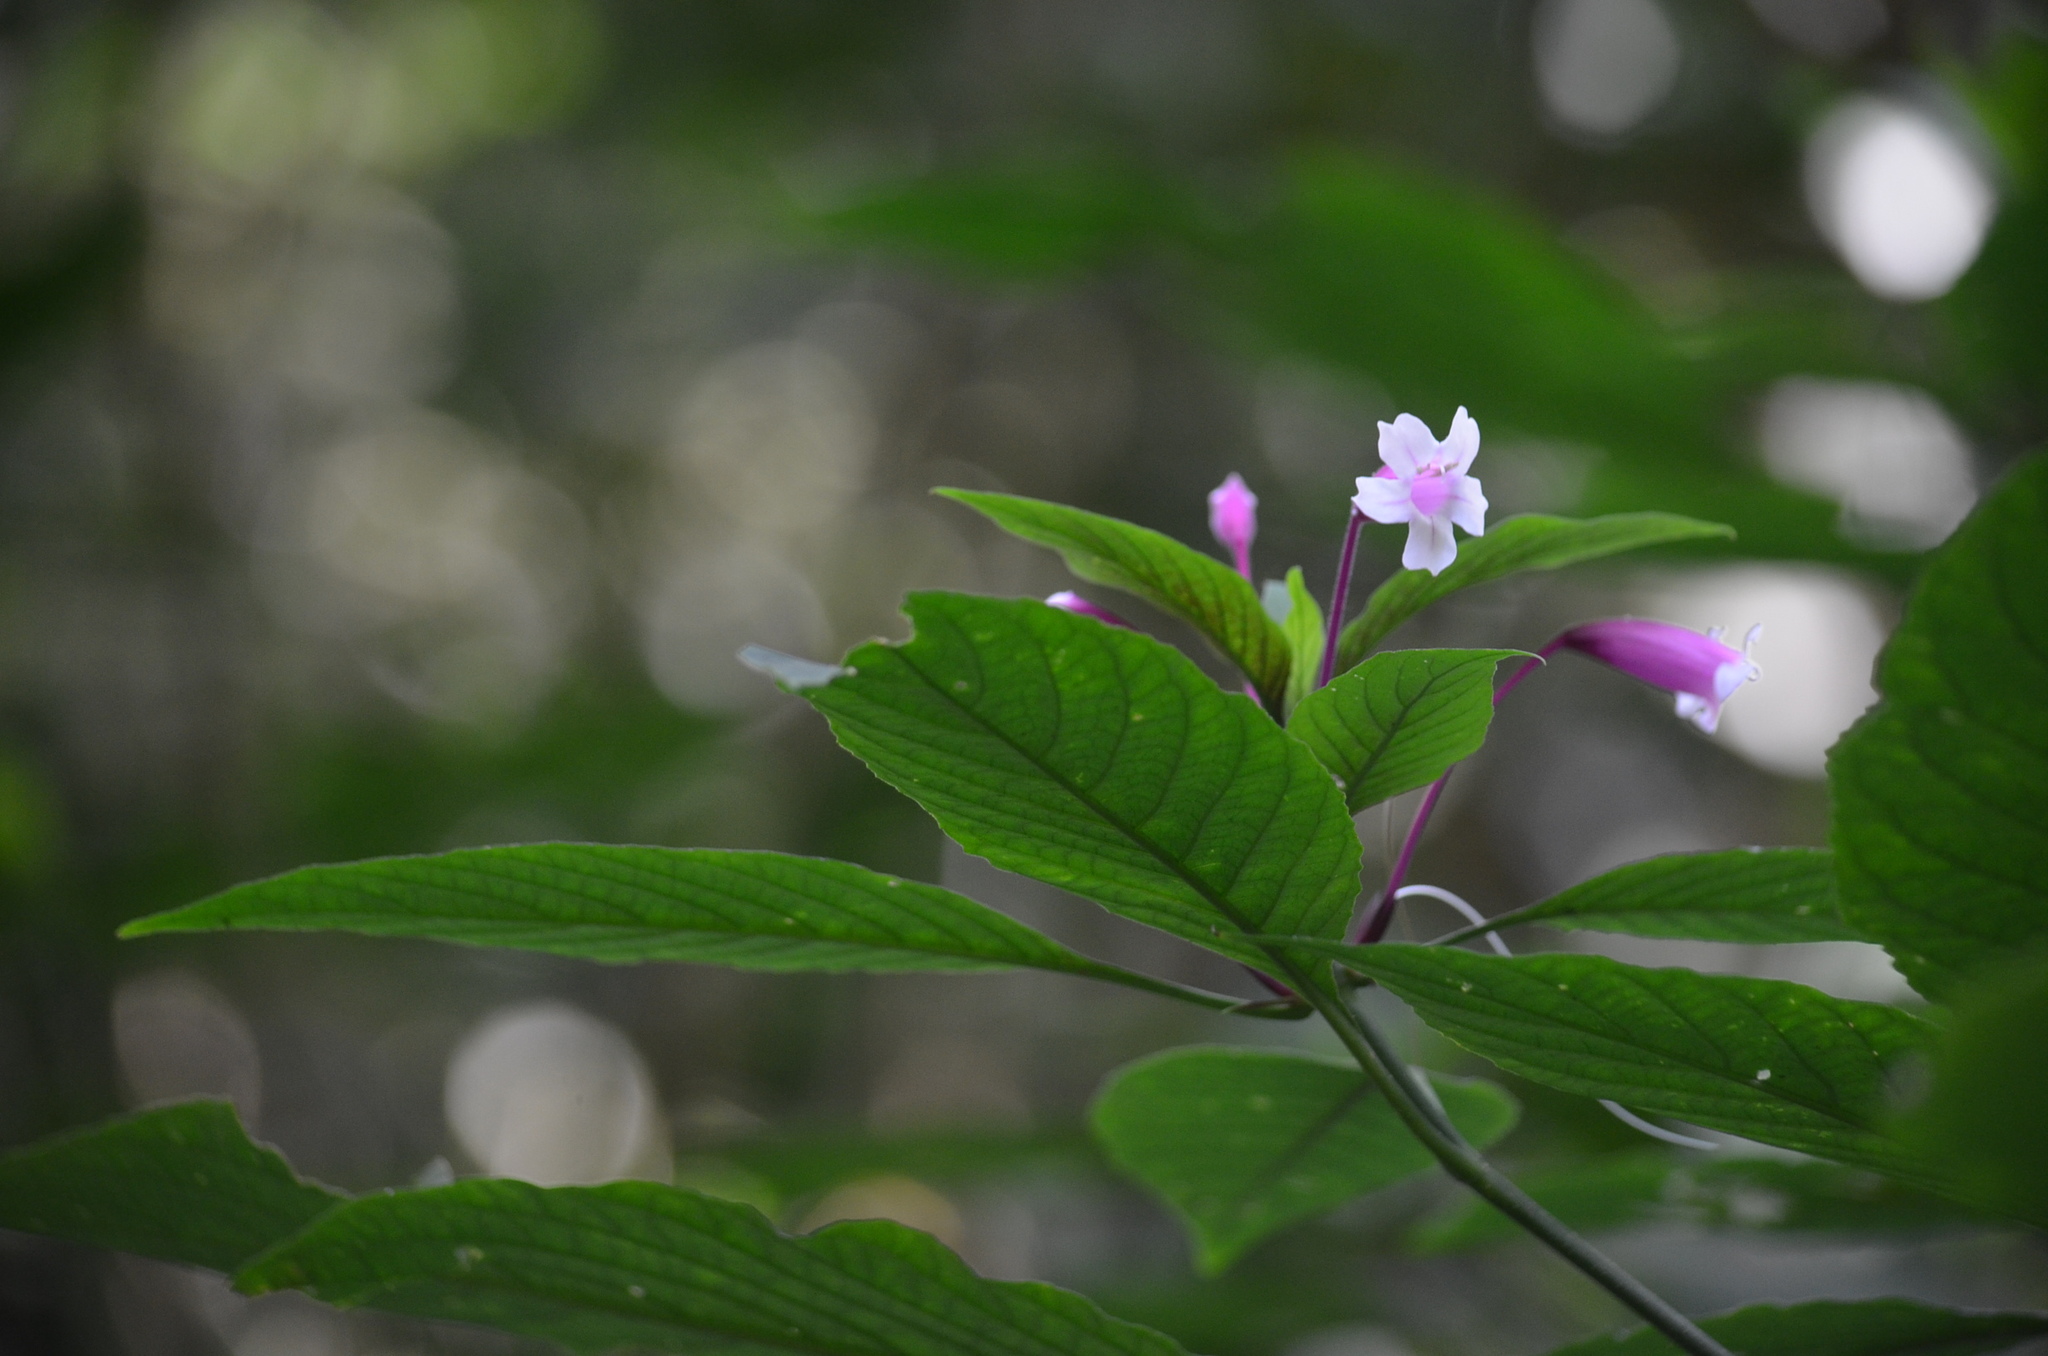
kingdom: Plantae
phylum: Tracheophyta
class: Magnoliopsida
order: Lamiales
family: Acanthaceae
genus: Ruellia
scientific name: Ruellia herbstii
